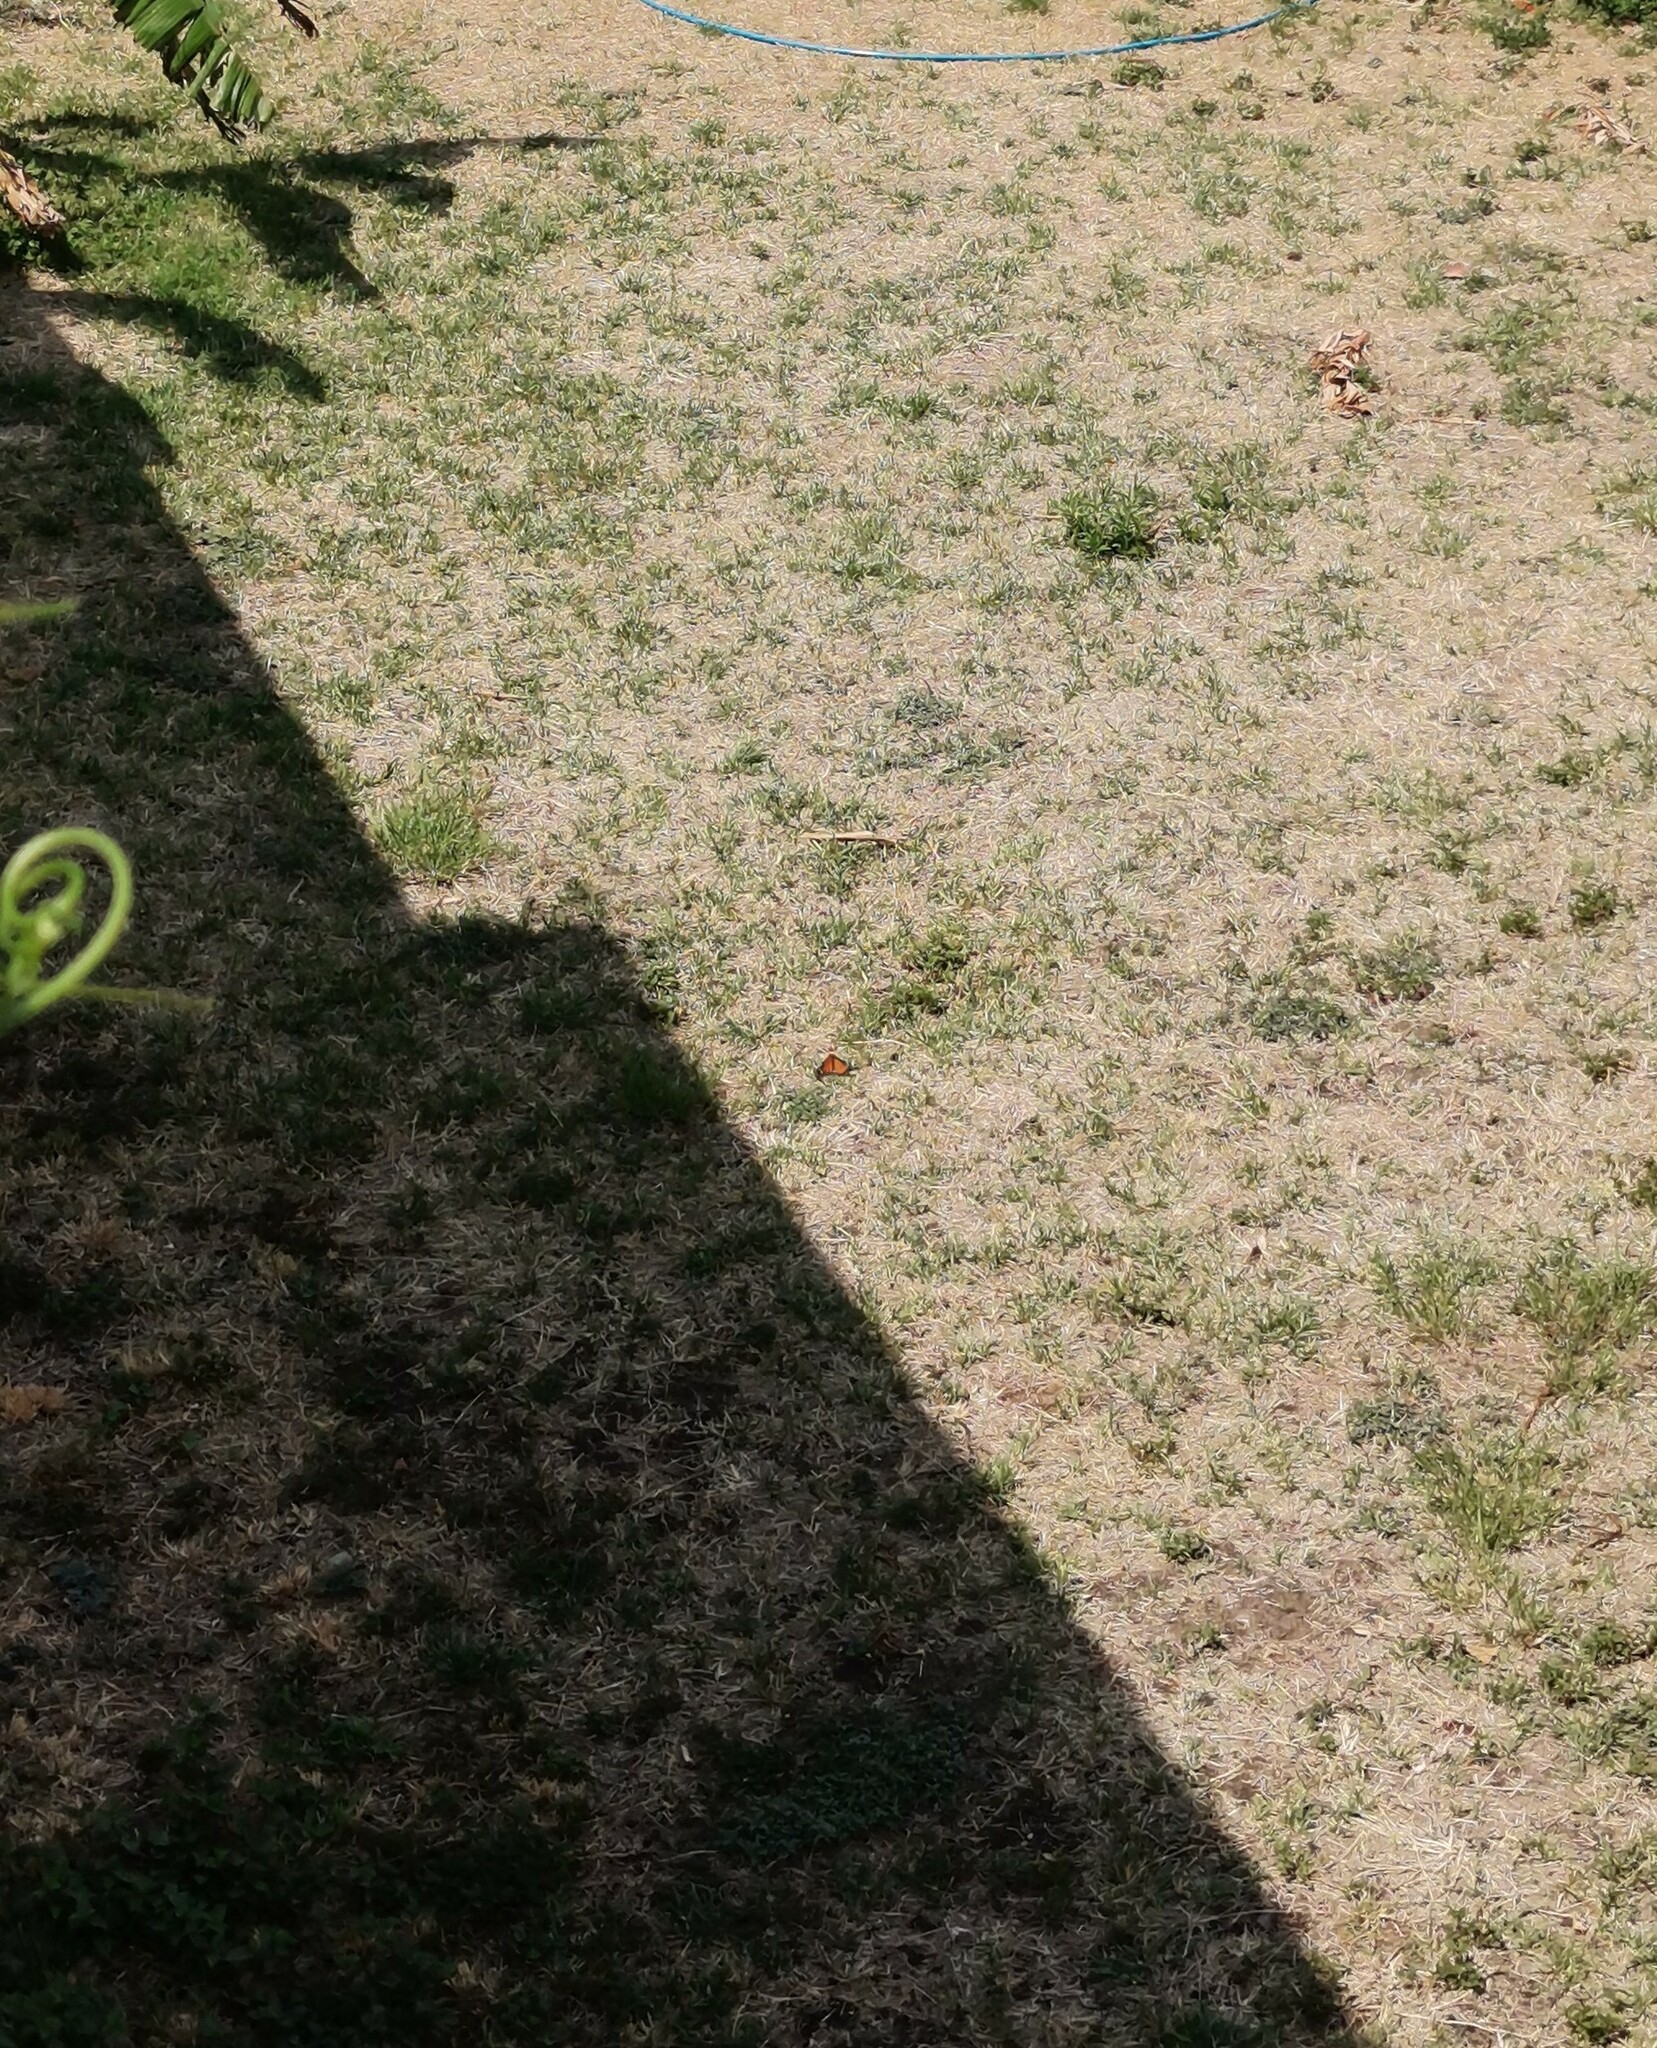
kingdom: Animalia
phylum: Arthropoda
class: Insecta
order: Lepidoptera
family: Nymphalidae
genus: Danaus
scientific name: Danaus plexippus
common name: Monarch
